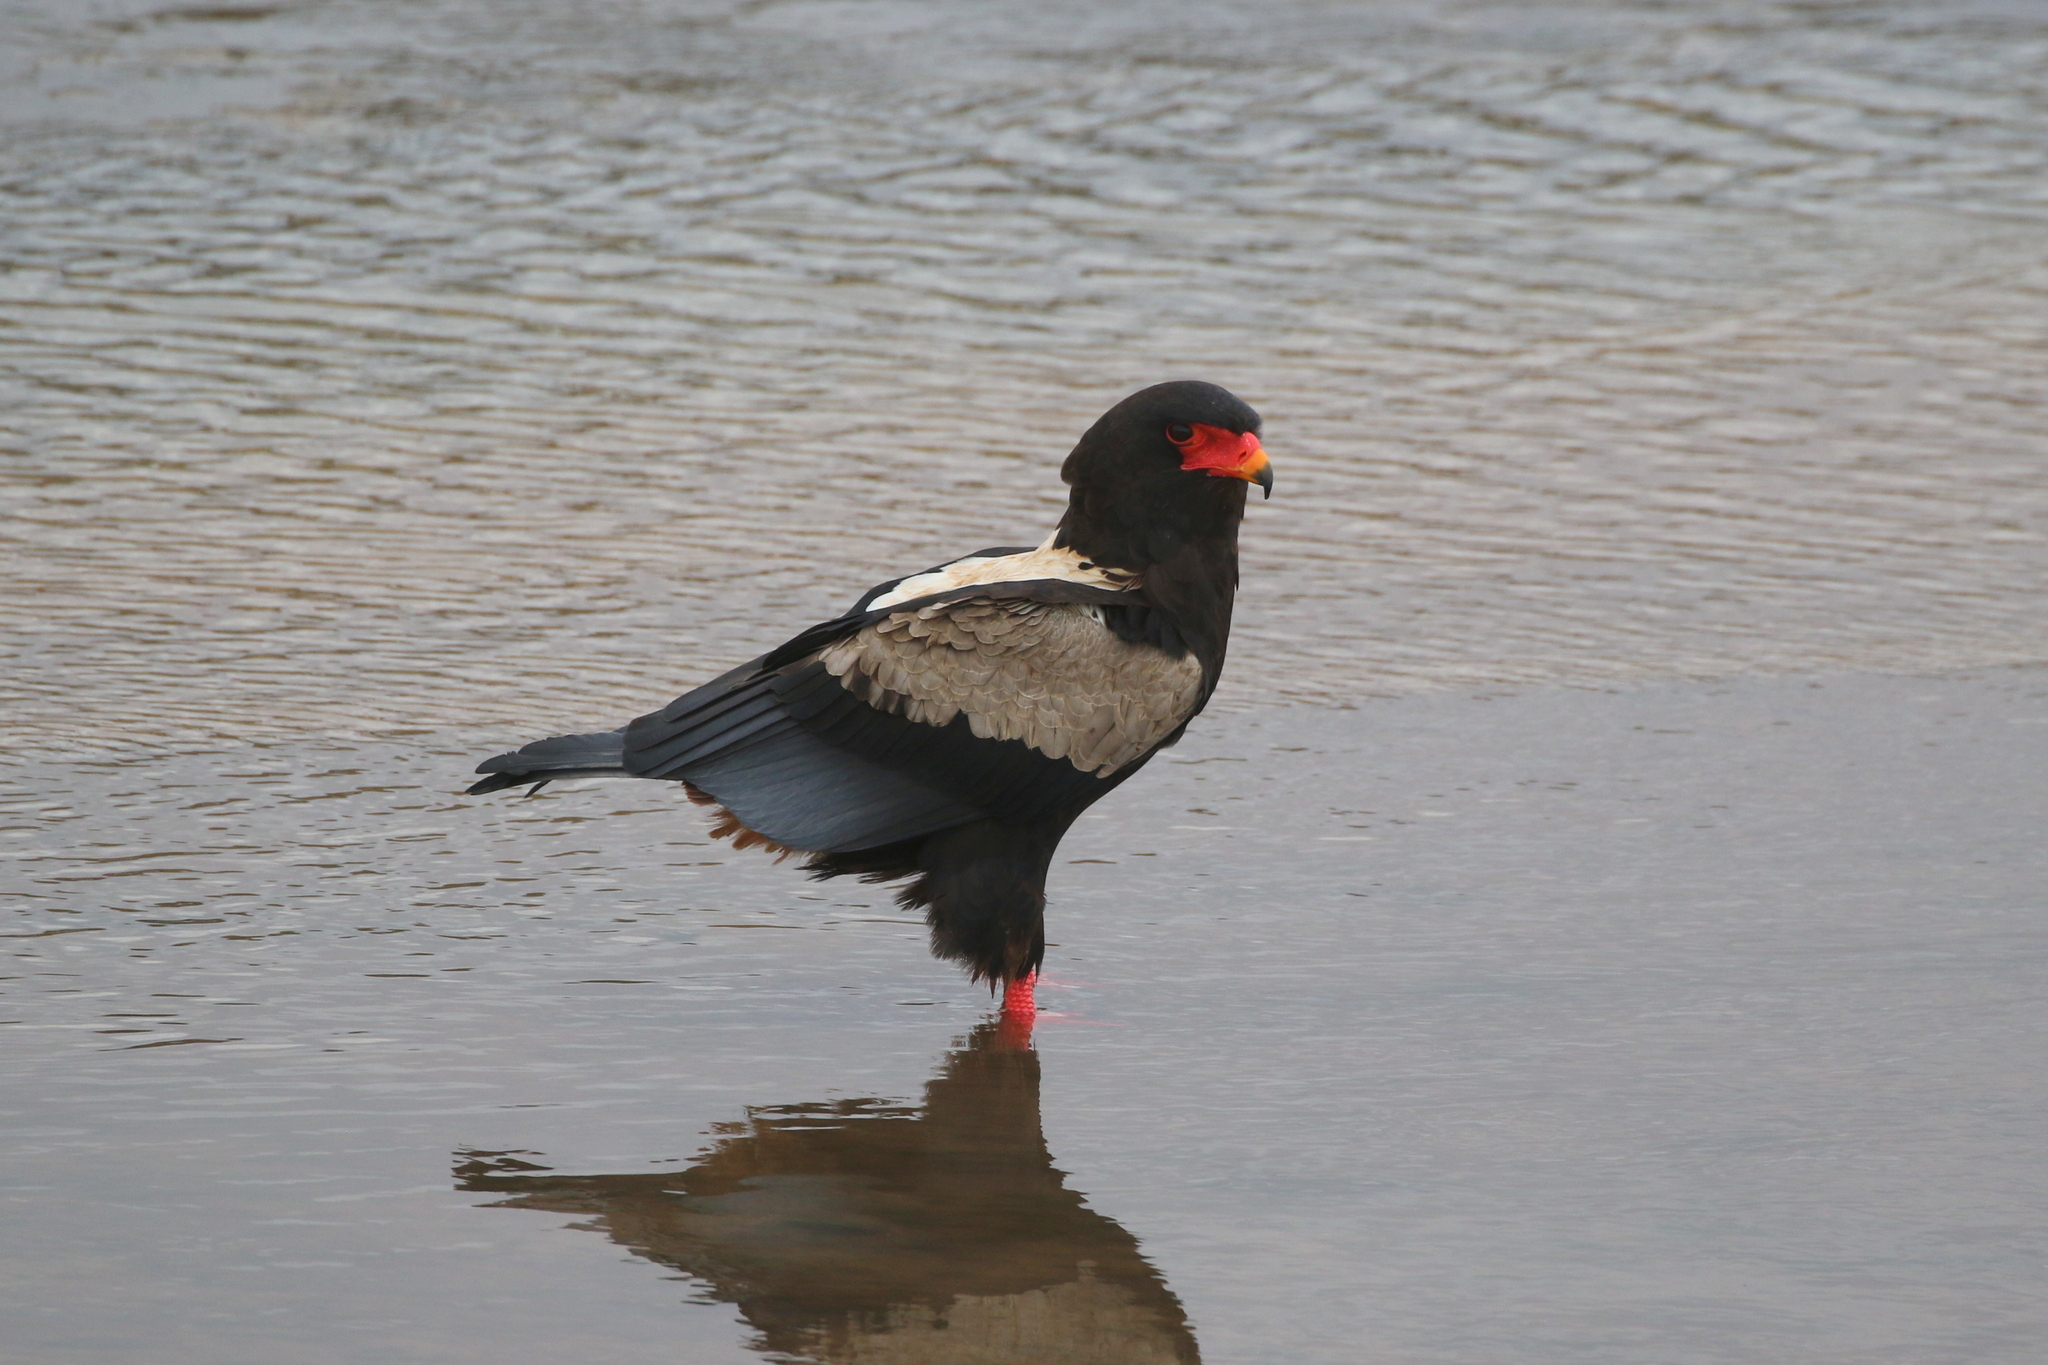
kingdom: Animalia
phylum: Chordata
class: Aves
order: Accipitriformes
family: Accipitridae
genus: Terathopius
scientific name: Terathopius ecaudatus
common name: Bateleur
